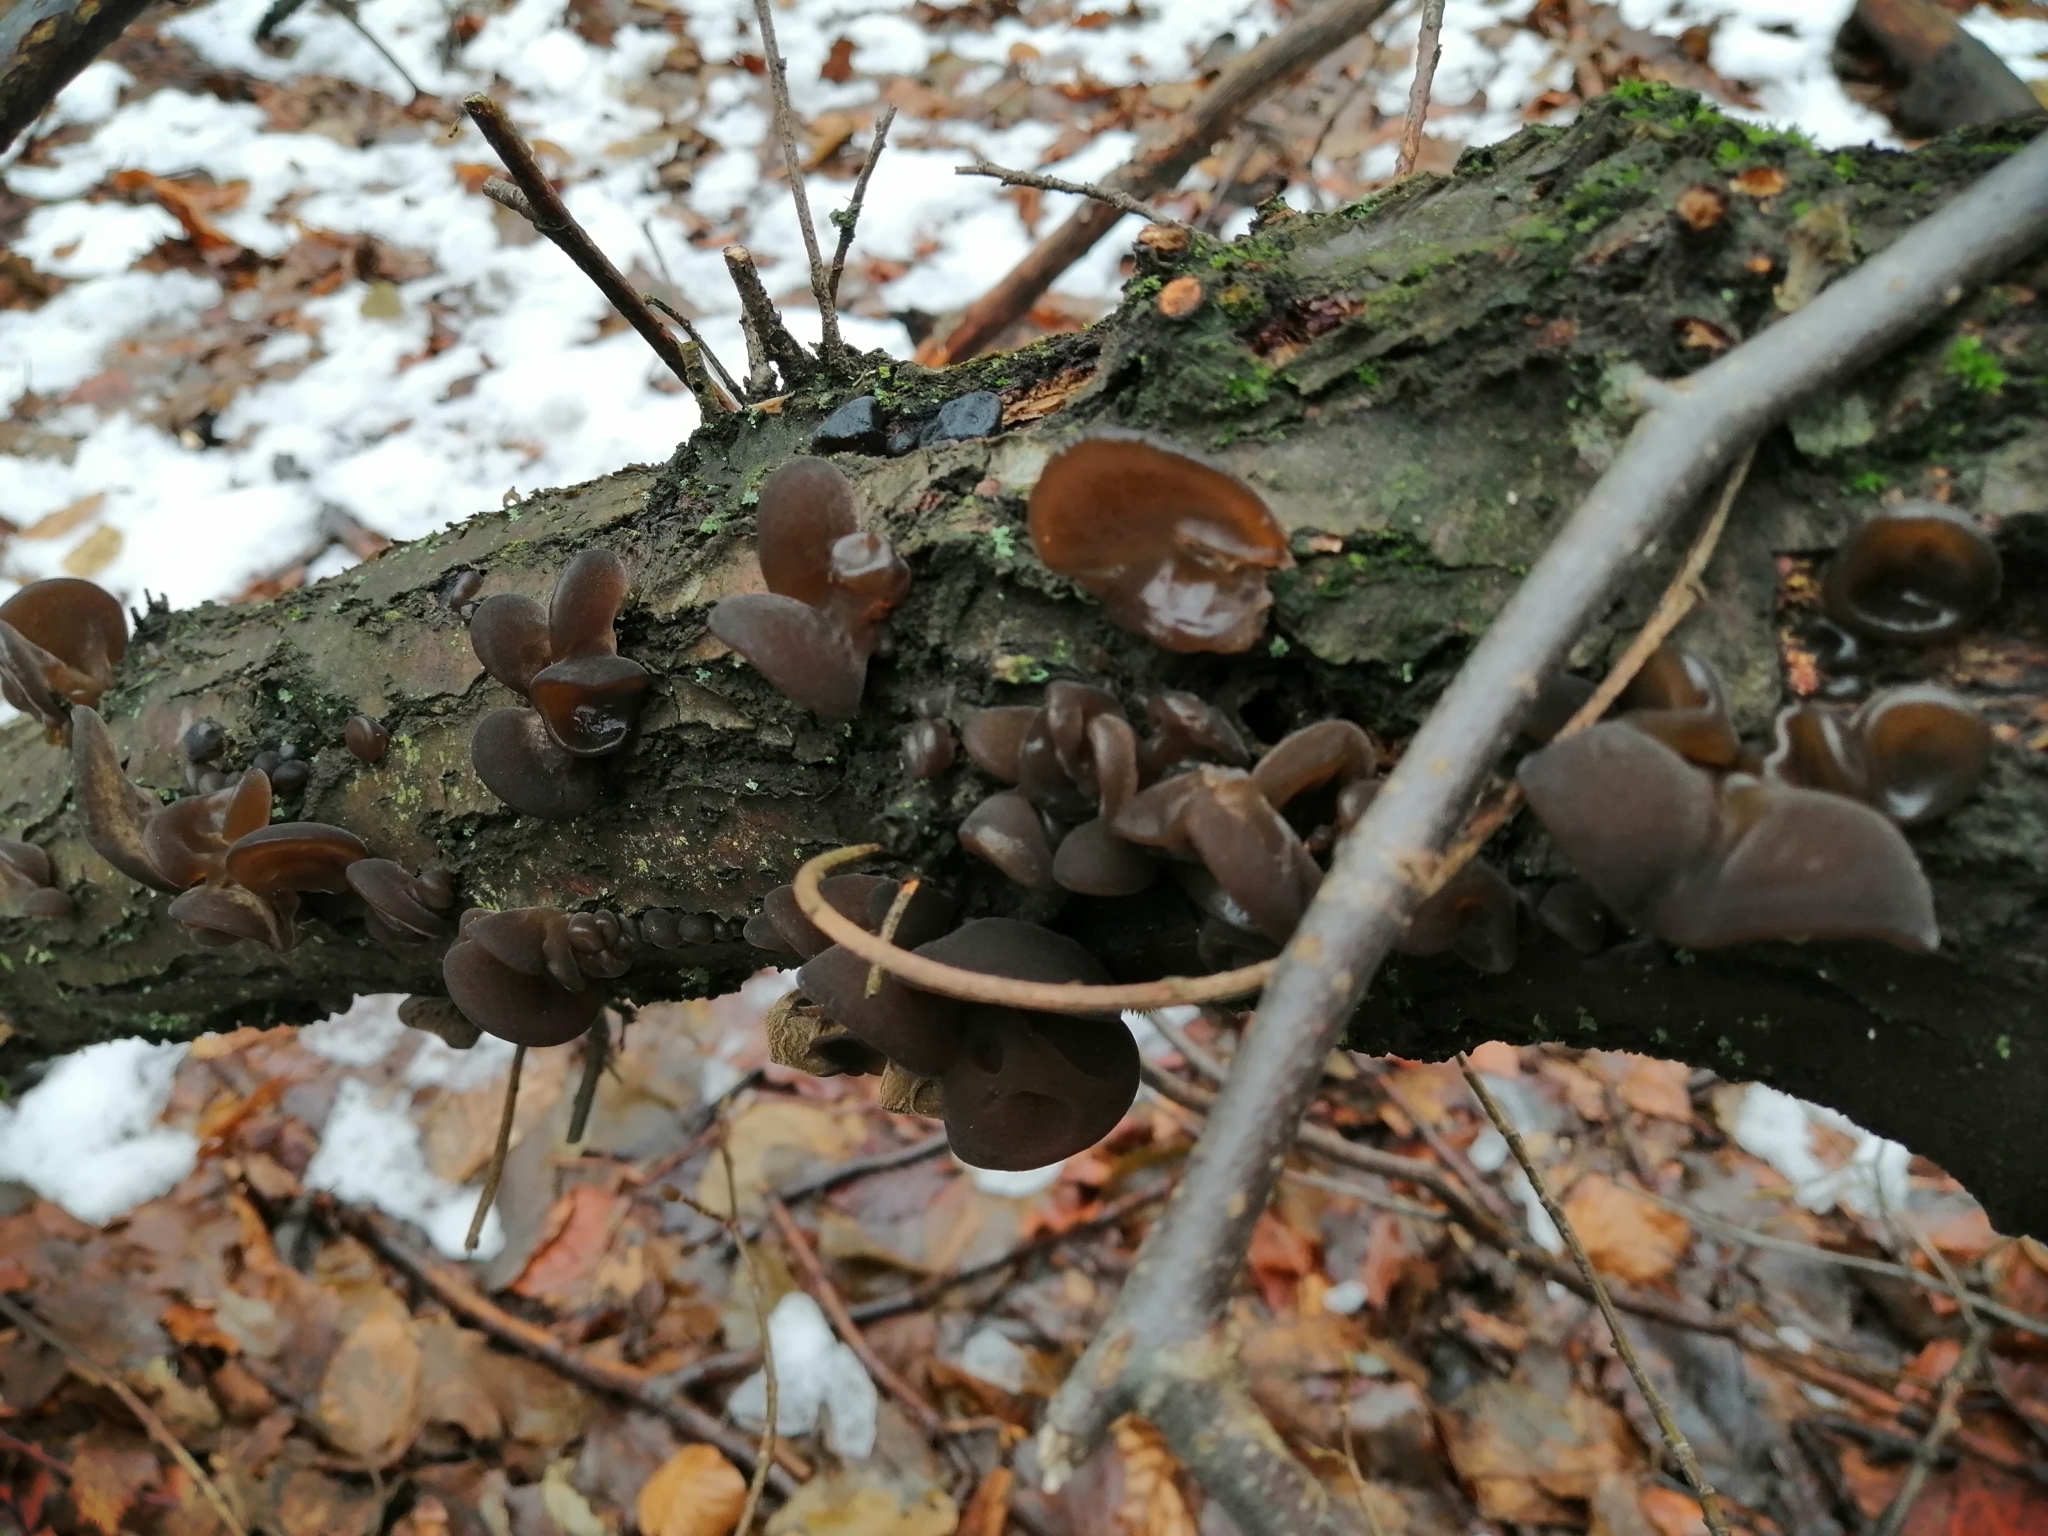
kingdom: Fungi
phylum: Basidiomycota
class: Agaricomycetes
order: Auriculariales
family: Auriculariaceae
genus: Auricularia
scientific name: Auricularia auricula-judae
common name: Jelly ear
